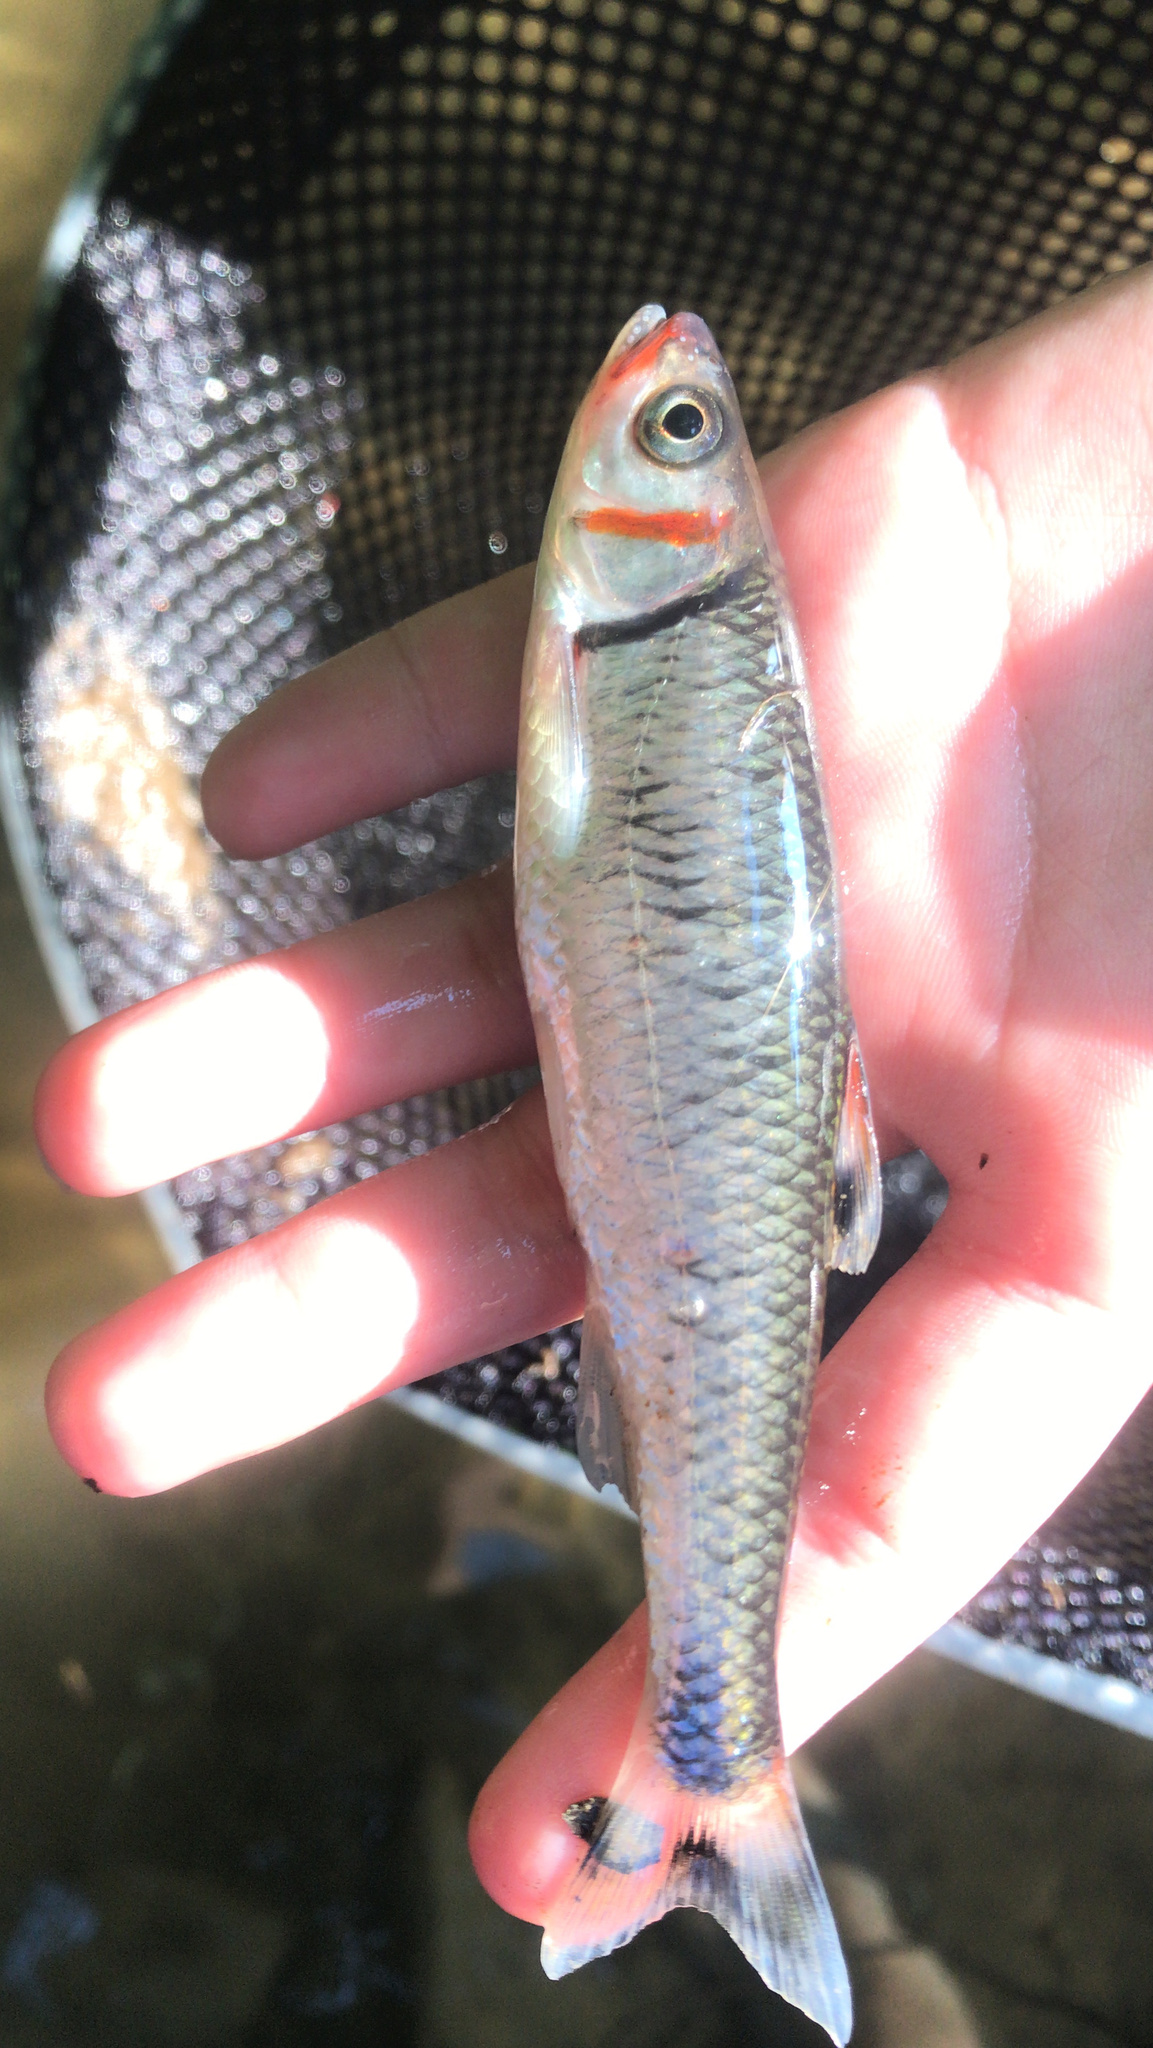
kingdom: Animalia
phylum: Chordata
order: Cypriniformes
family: Cyprinidae
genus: Luxilus
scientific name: Luxilus
